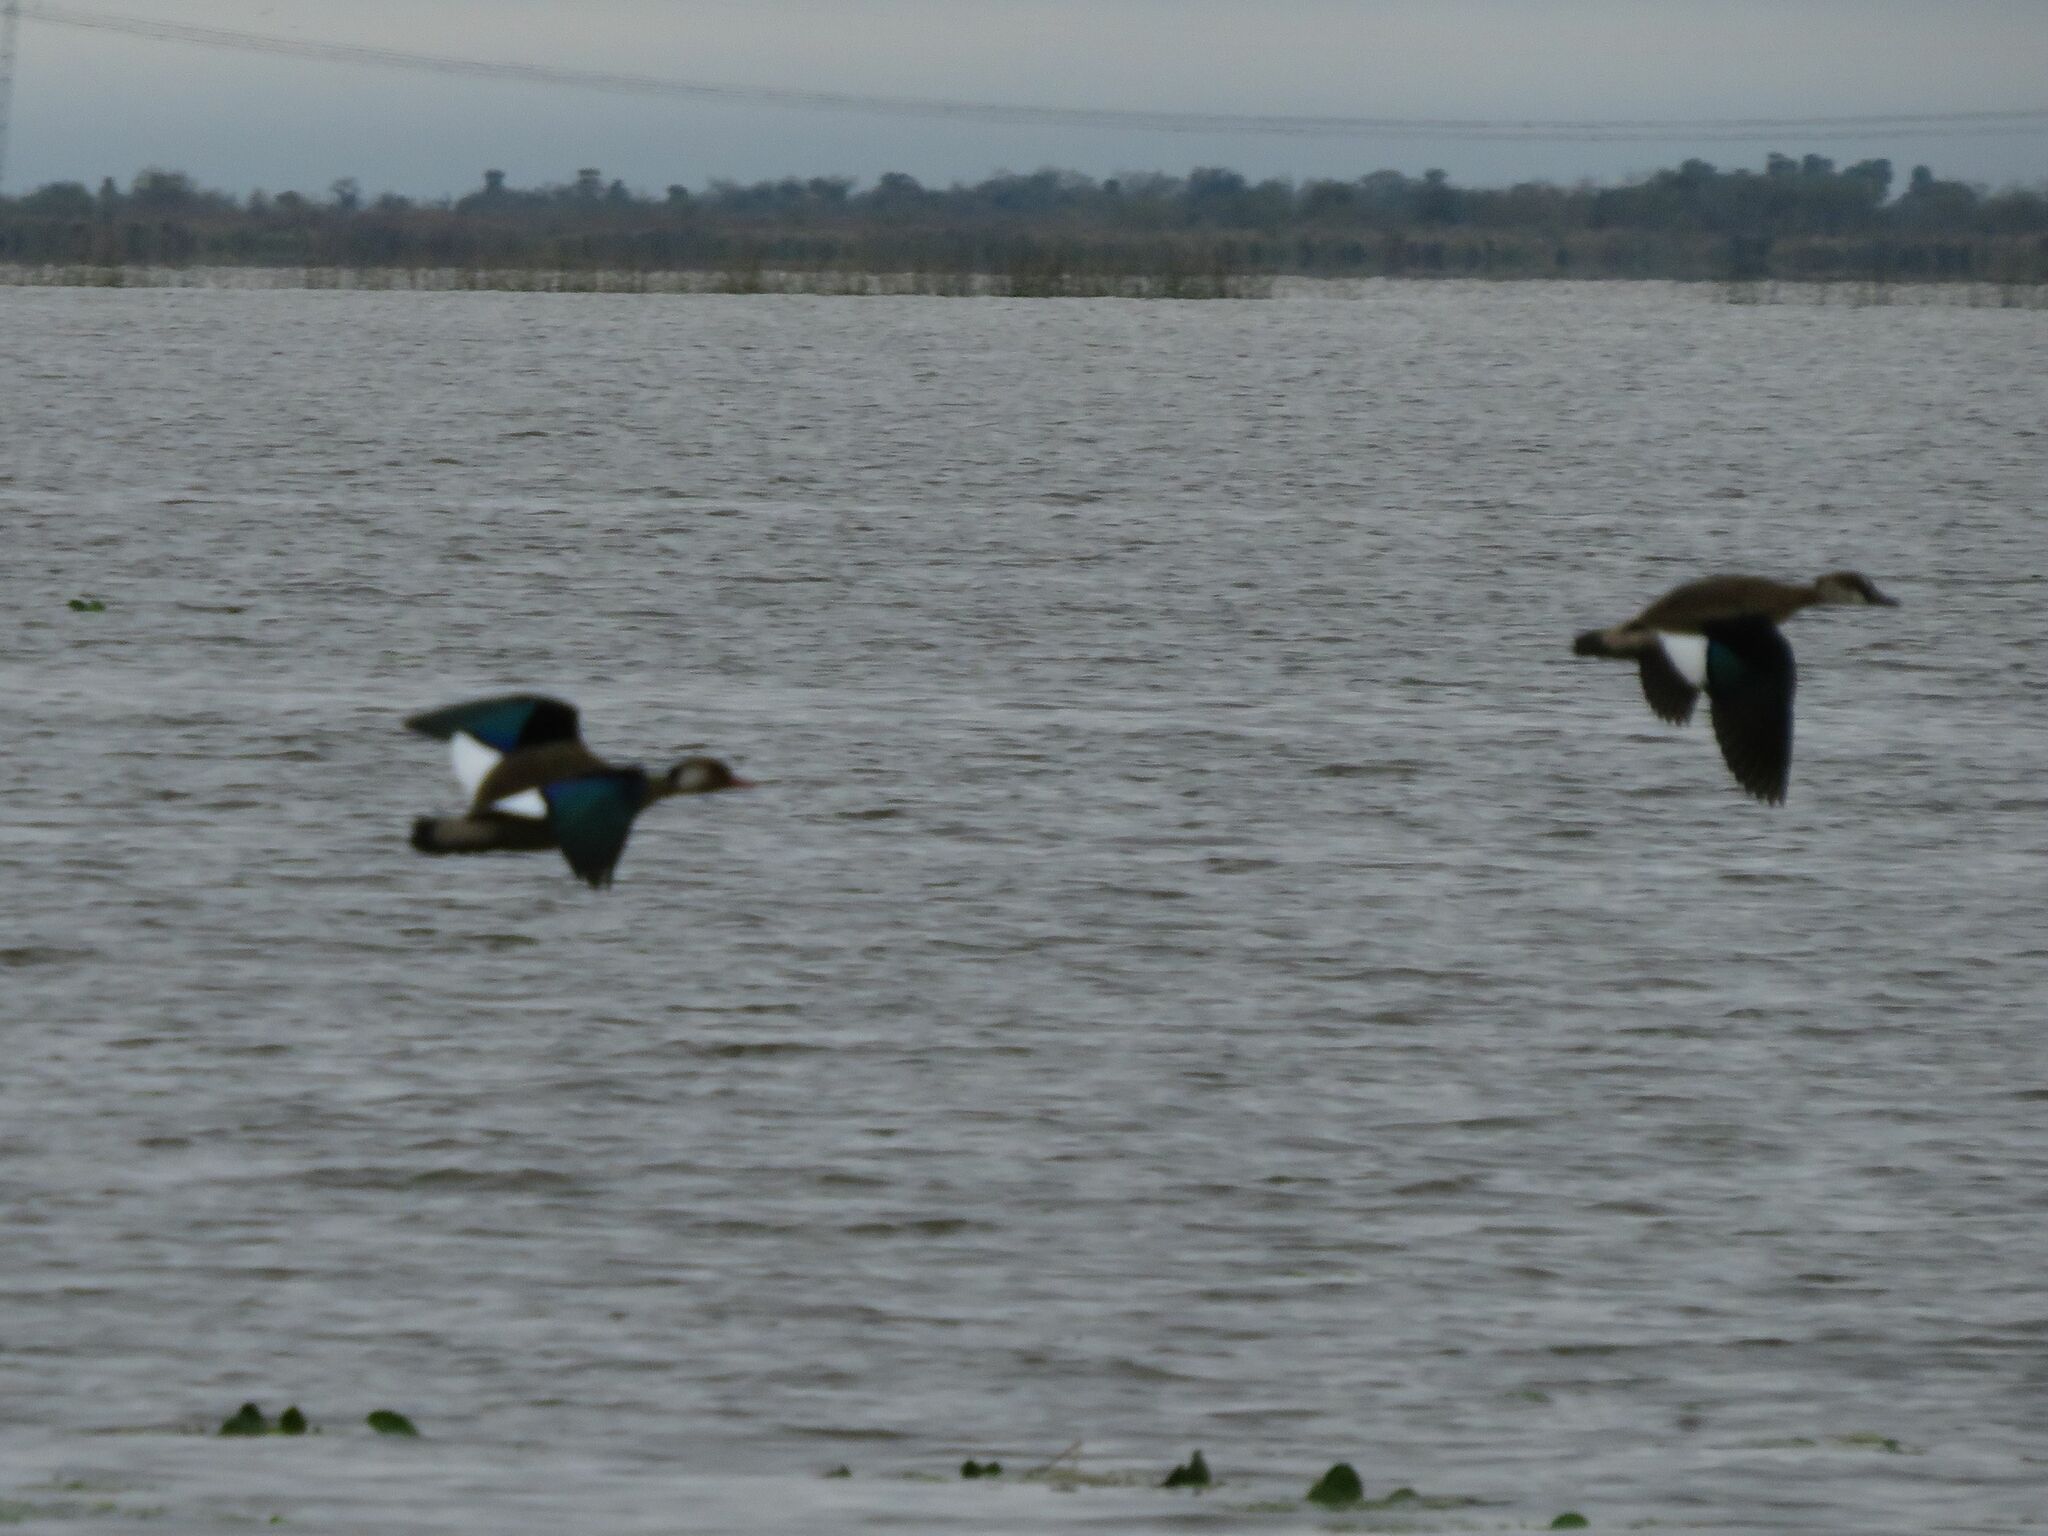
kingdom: Animalia
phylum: Chordata
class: Aves
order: Anseriformes
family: Anatidae
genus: Amazonetta
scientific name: Amazonetta brasiliensis
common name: Brazilian teal
